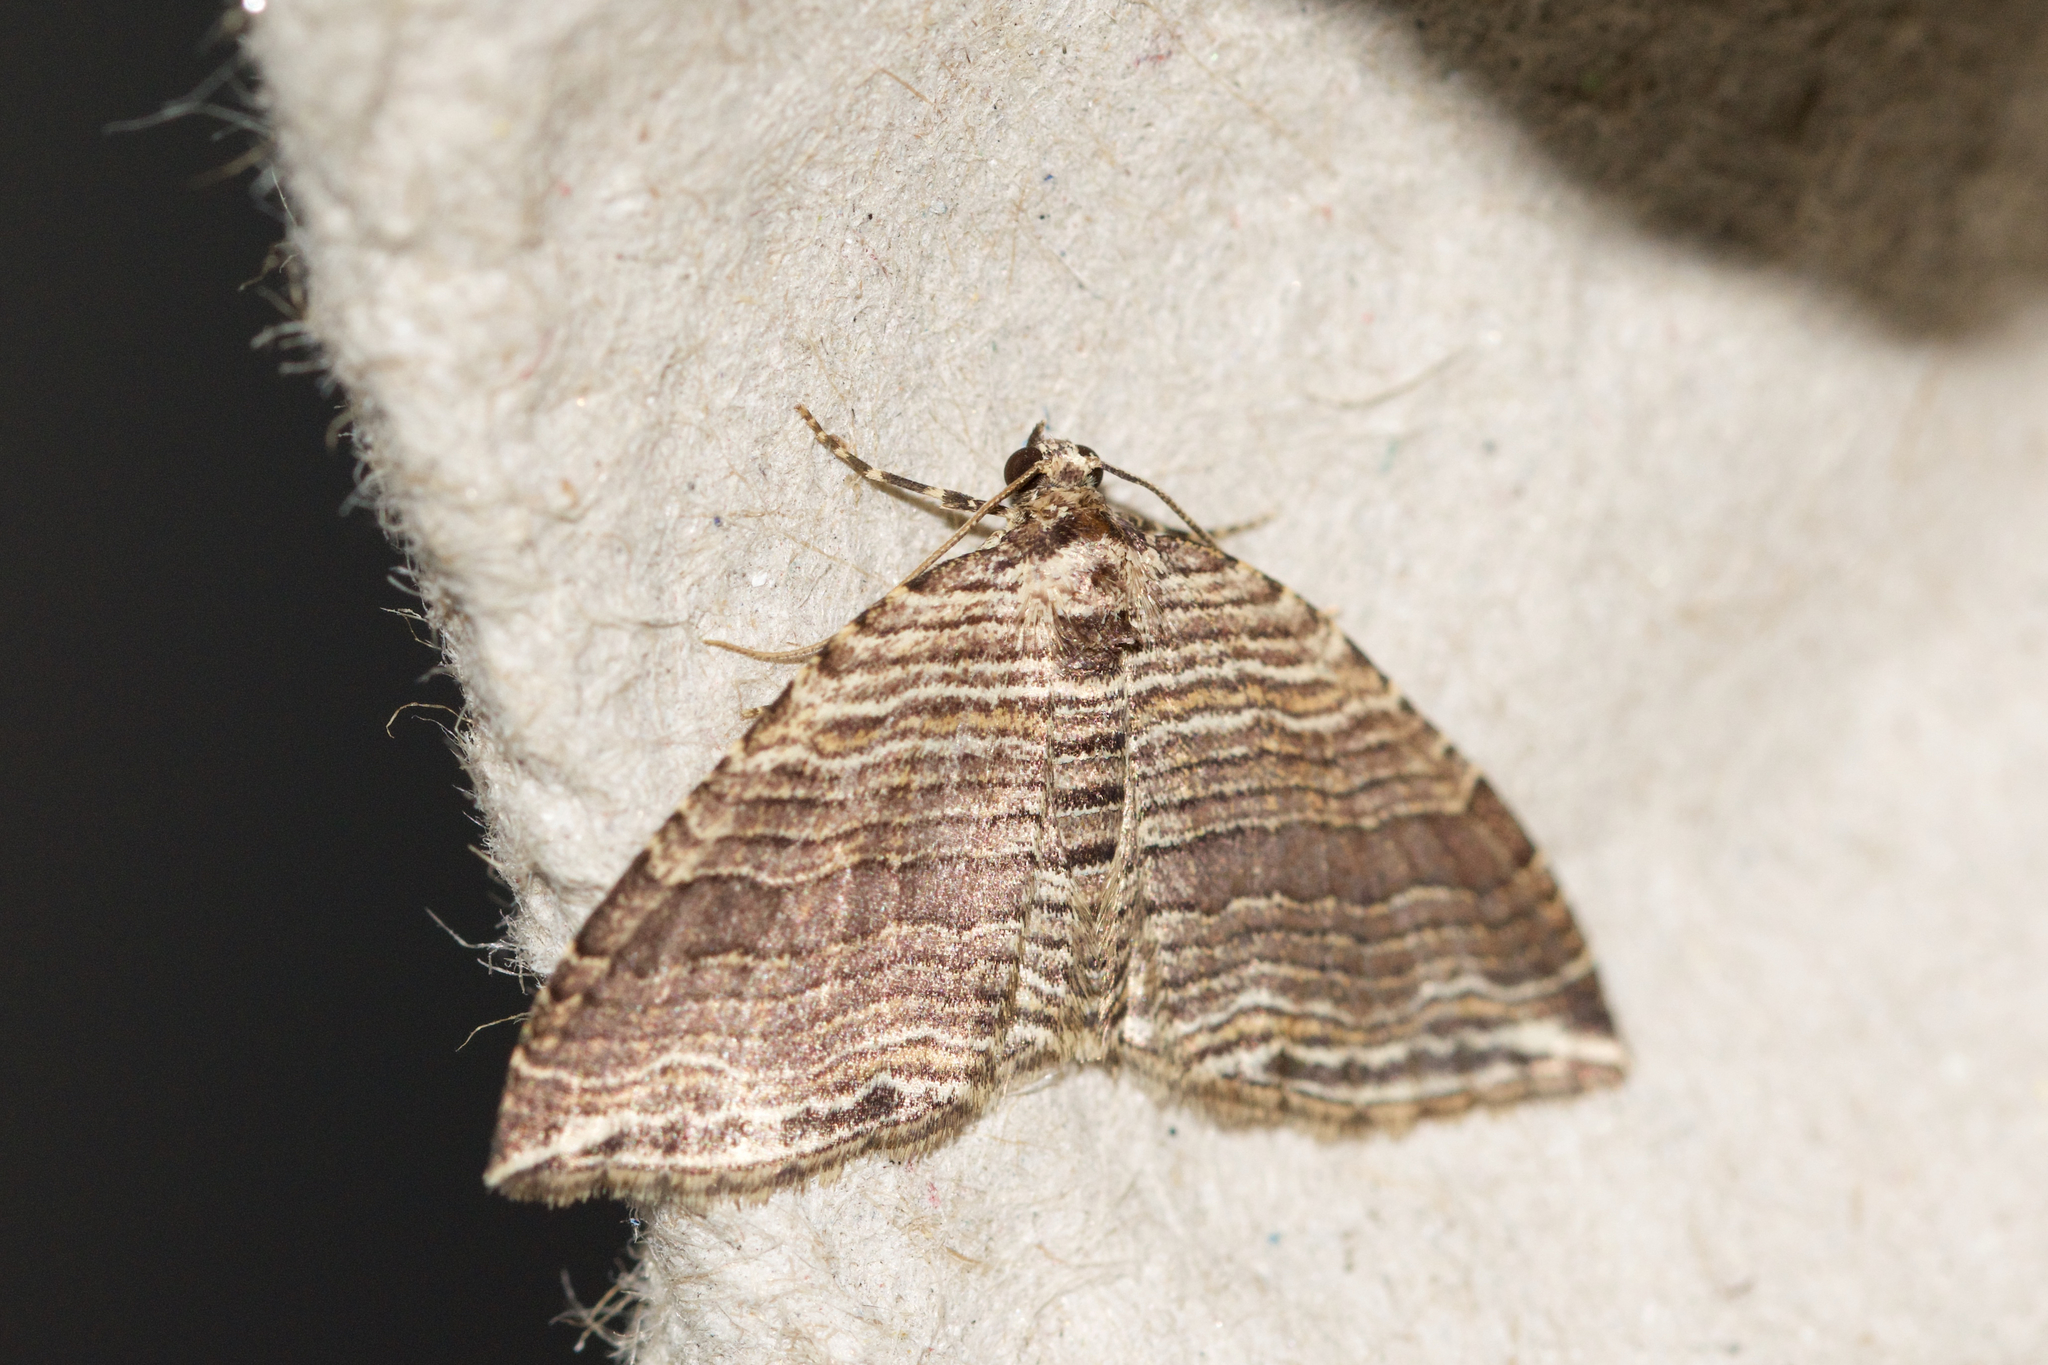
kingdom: Animalia
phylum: Arthropoda
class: Insecta
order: Lepidoptera
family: Geometridae
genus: Anticlea
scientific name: Anticlea multiferata
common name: Many-lined carpet
